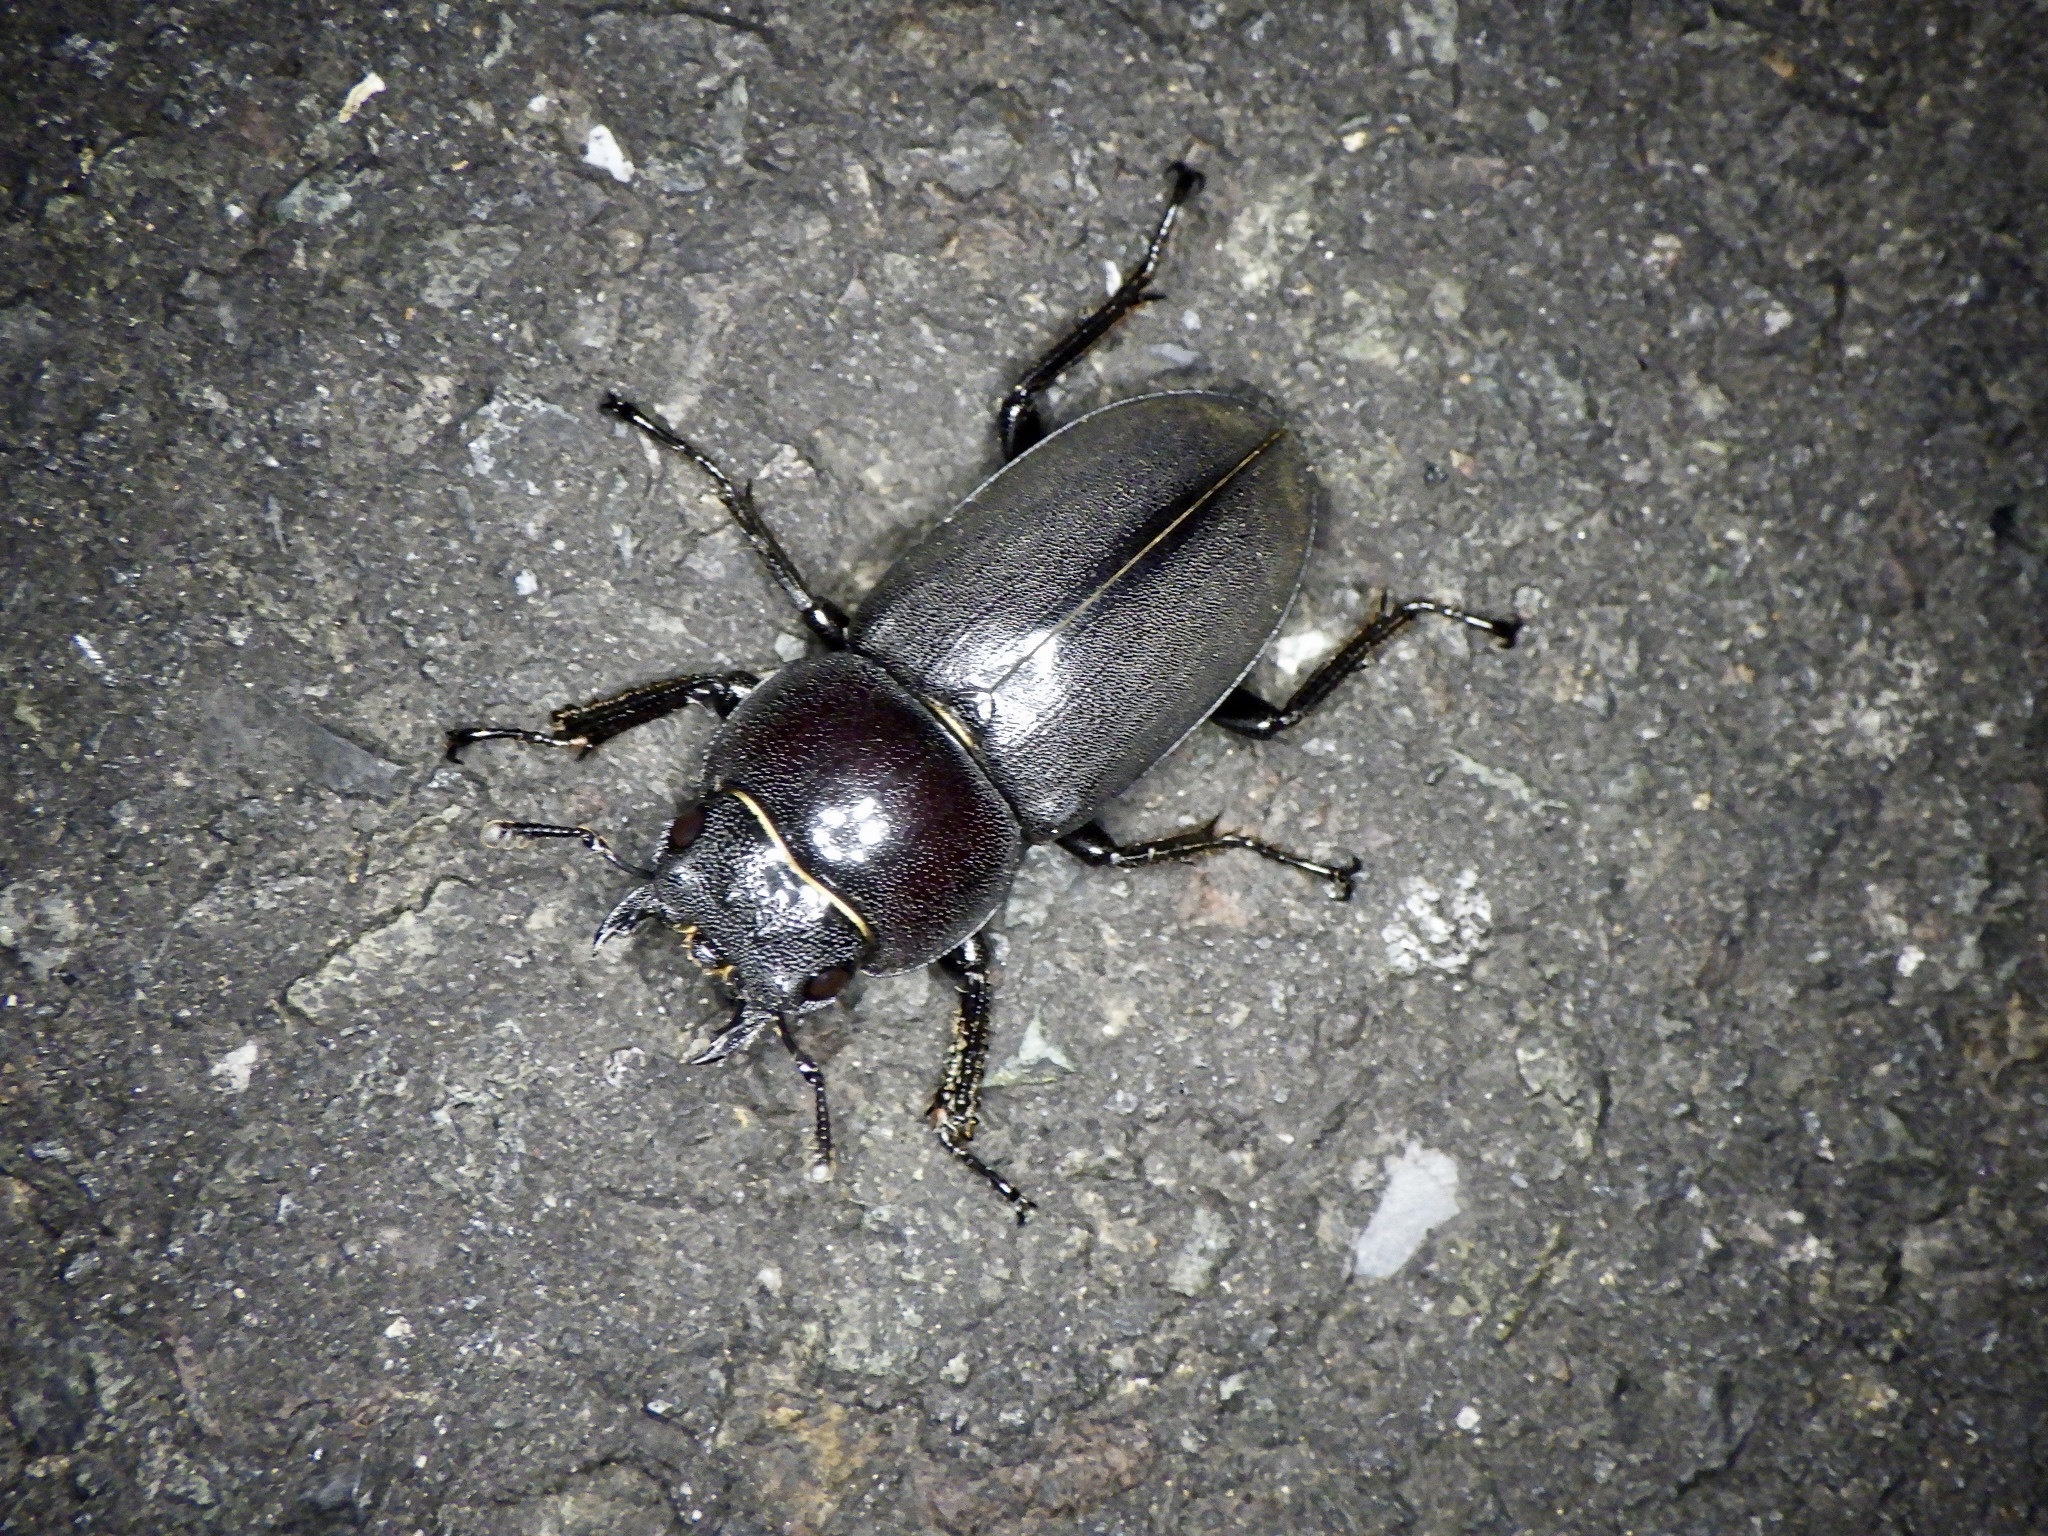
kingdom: Animalia
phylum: Arthropoda
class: Insecta
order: Coleoptera
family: Lucanidae
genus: Dorcus
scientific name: Dorcus rectus
